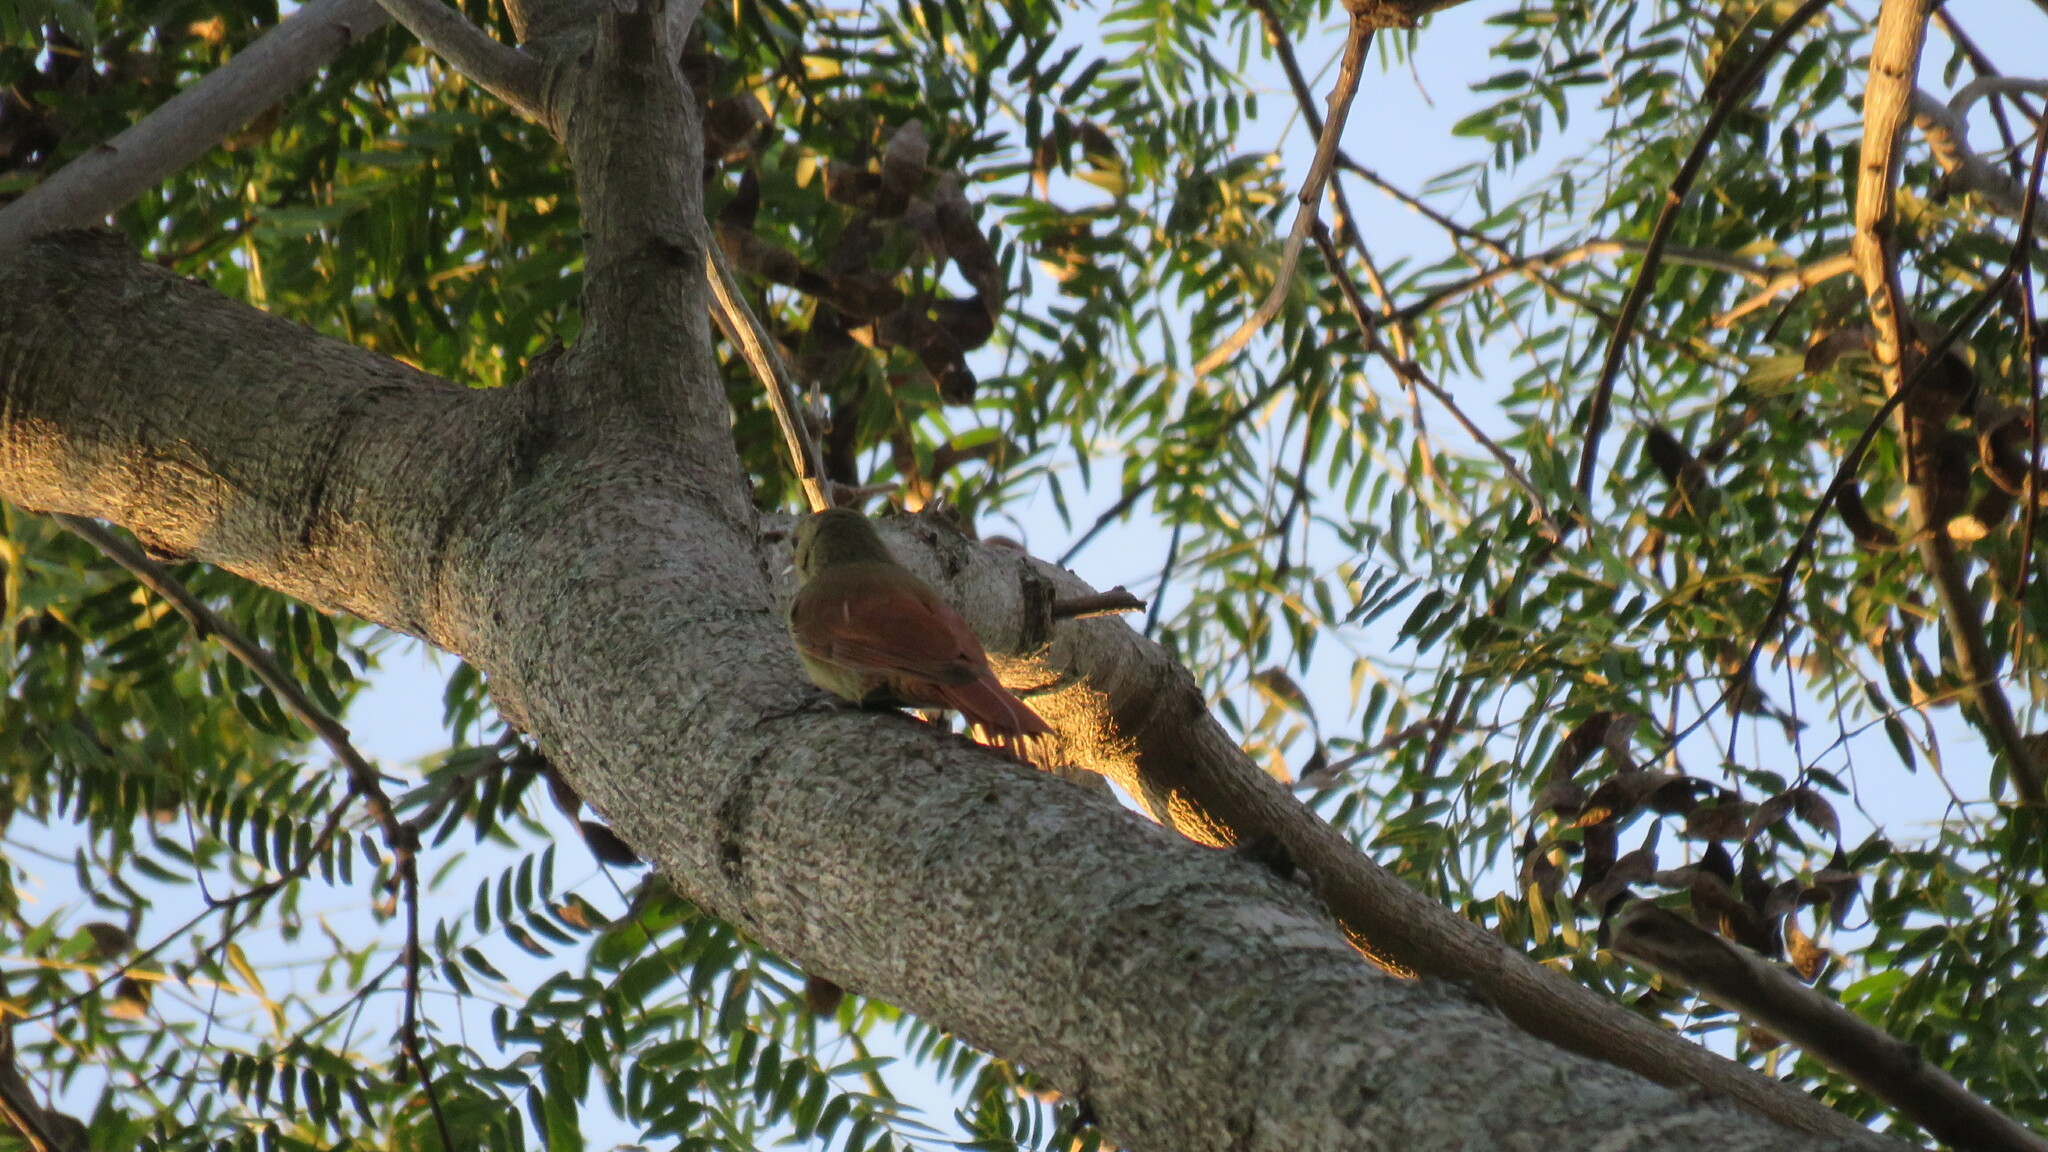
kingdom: Animalia
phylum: Chordata
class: Aves
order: Passeriformes
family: Furnariidae
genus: Sittasomus
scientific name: Sittasomus griseicapillus
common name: Olivaceous woodcreeper
